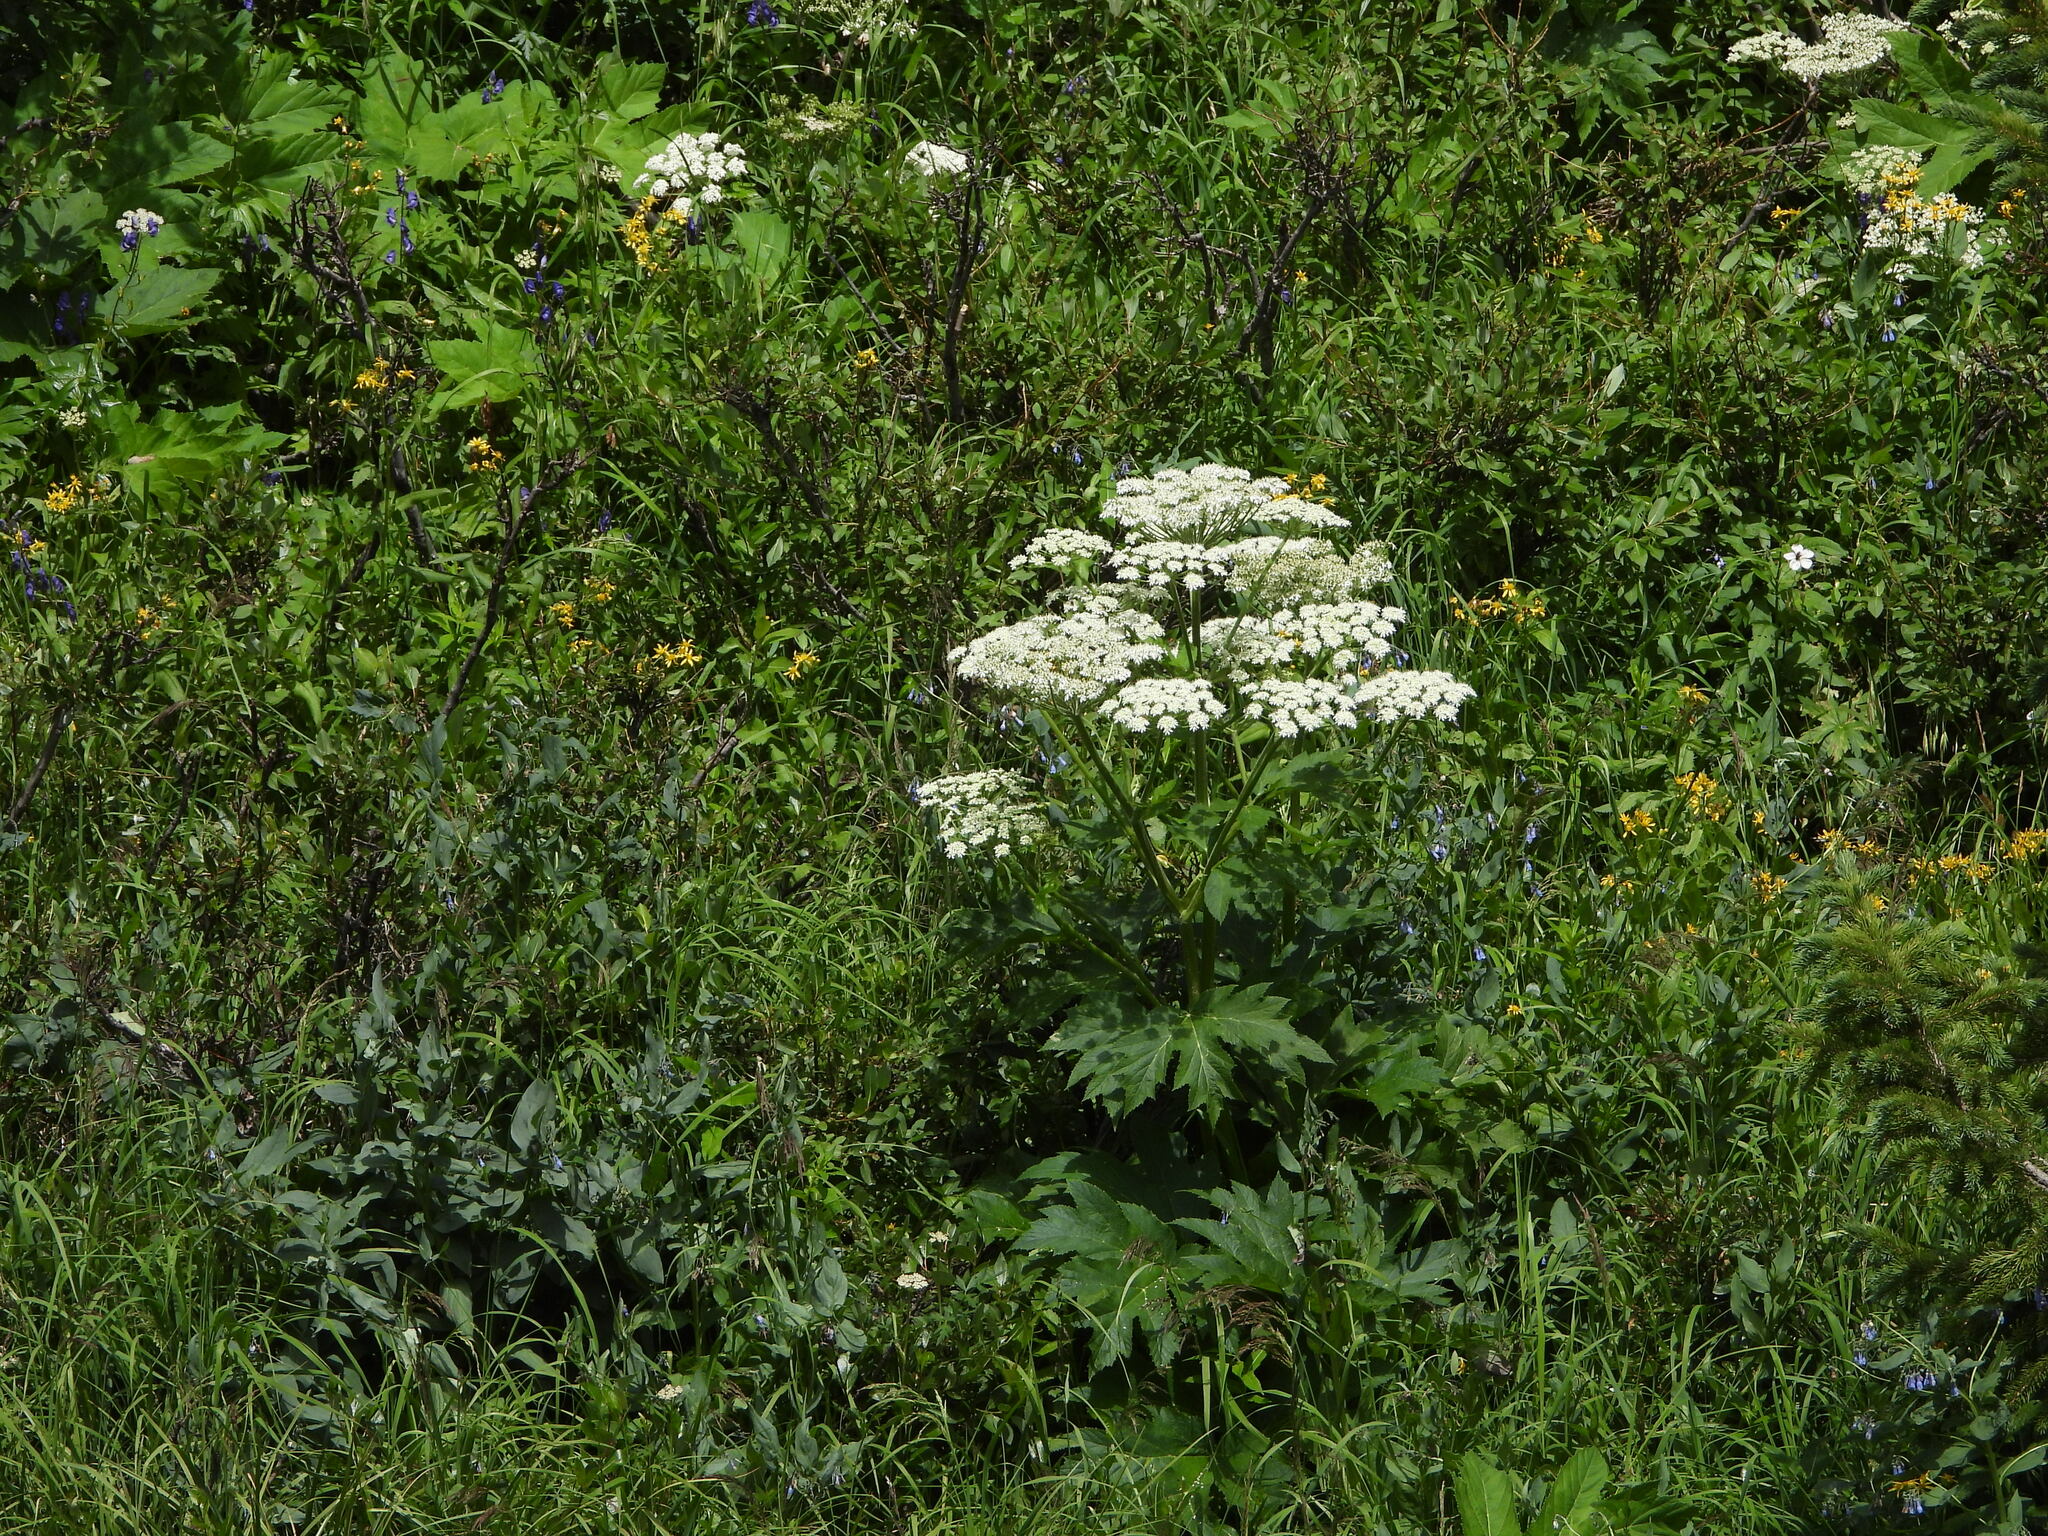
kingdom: Plantae
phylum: Tracheophyta
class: Magnoliopsida
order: Apiales
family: Apiaceae
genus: Heracleum
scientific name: Heracleum maximum
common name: American cow parsnip
